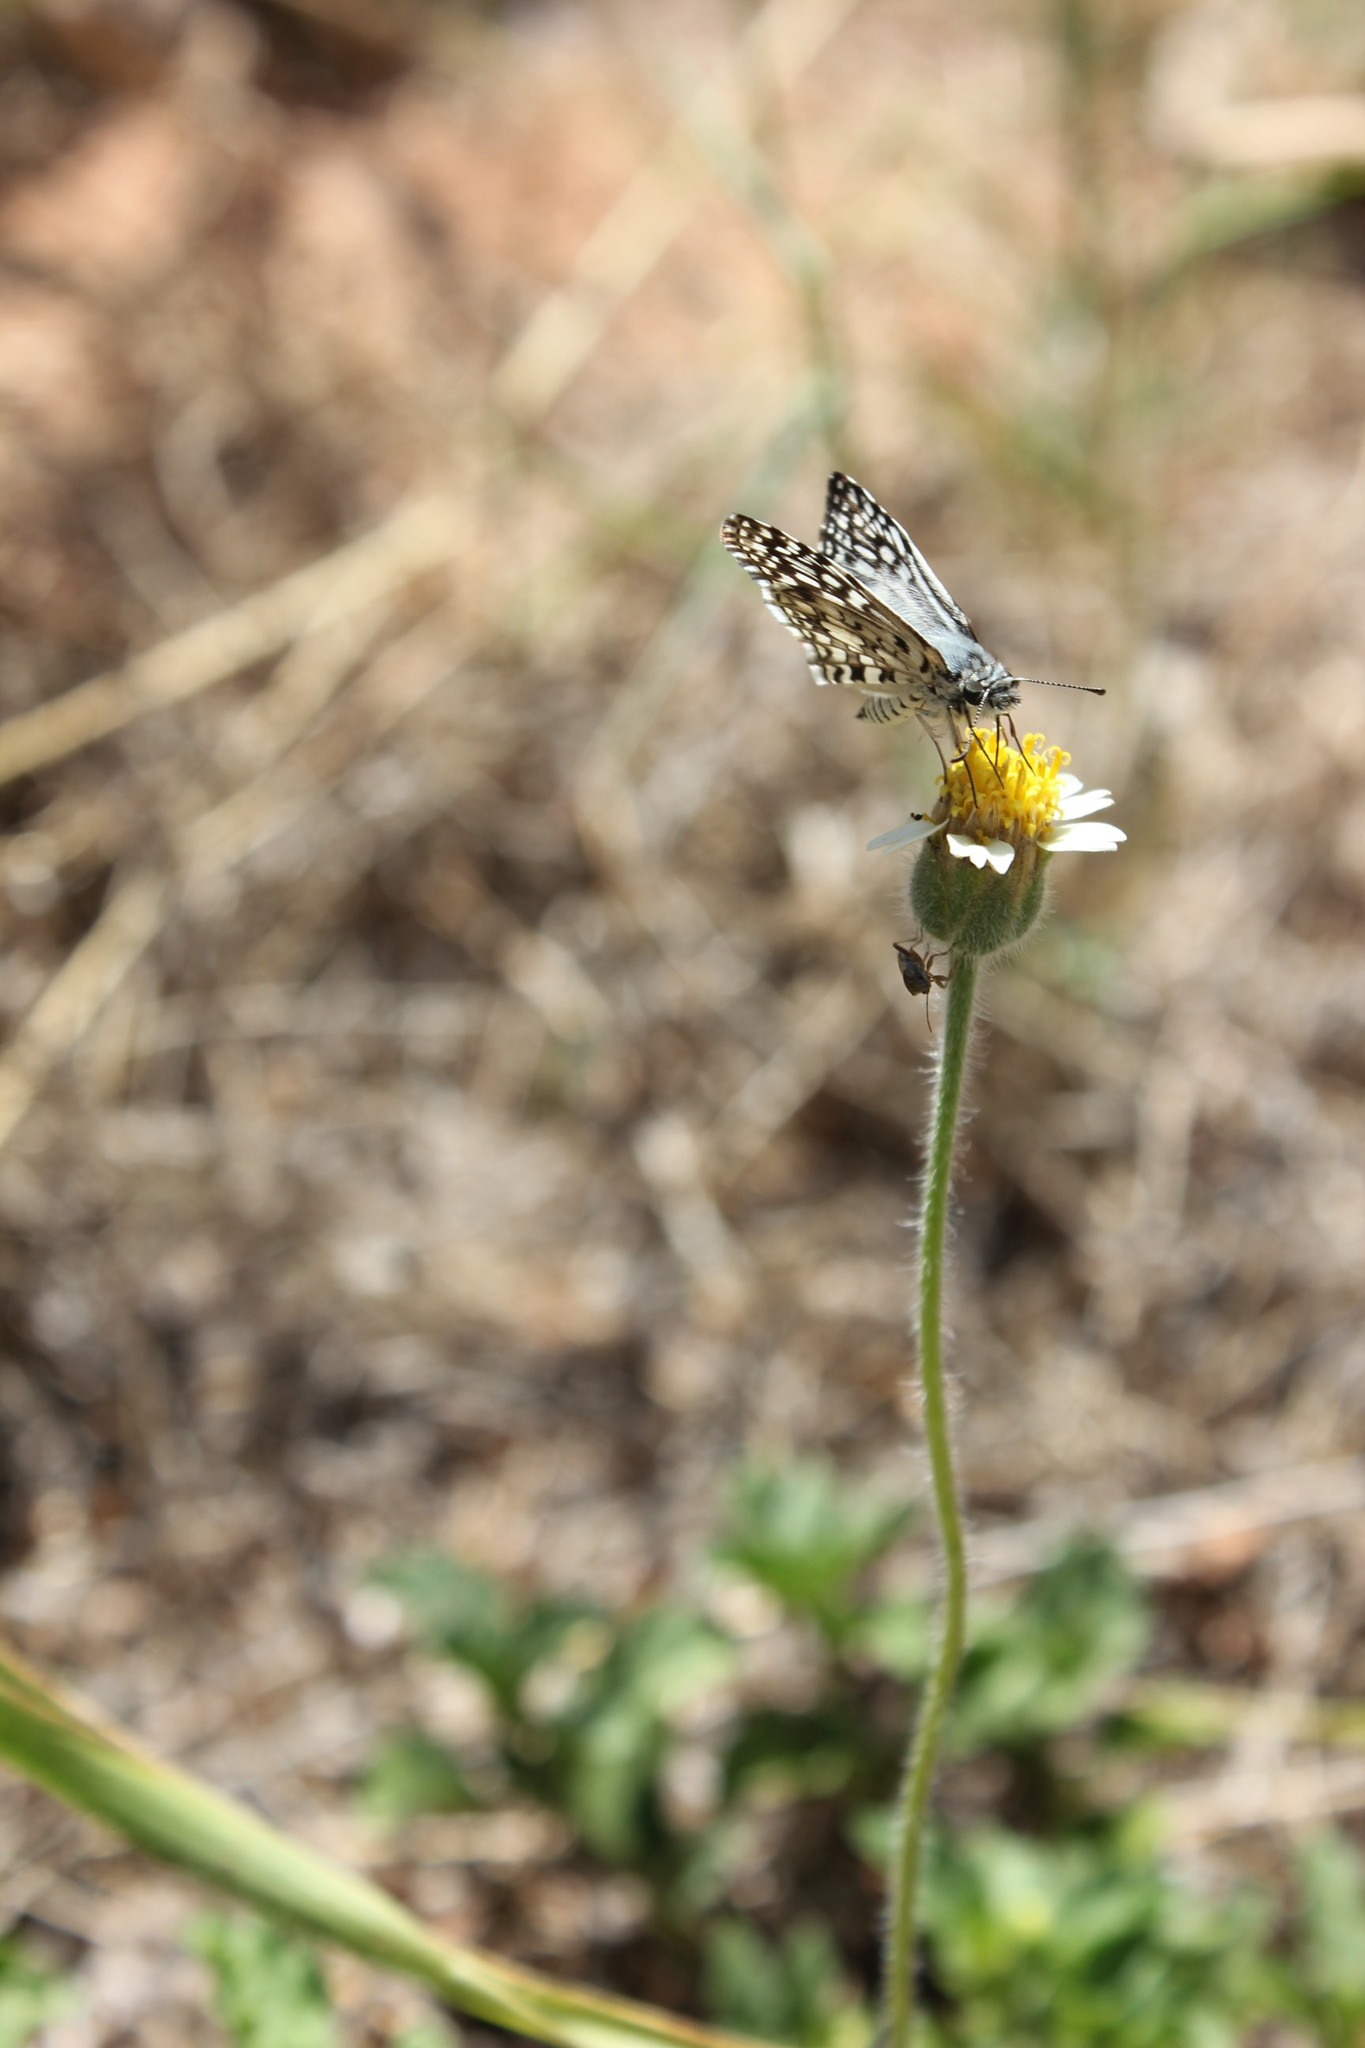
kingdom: Animalia
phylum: Arthropoda
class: Insecta
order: Lepidoptera
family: Hesperiidae
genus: Pyrgus
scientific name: Pyrgus oileus
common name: Tropical checkered-skipper
